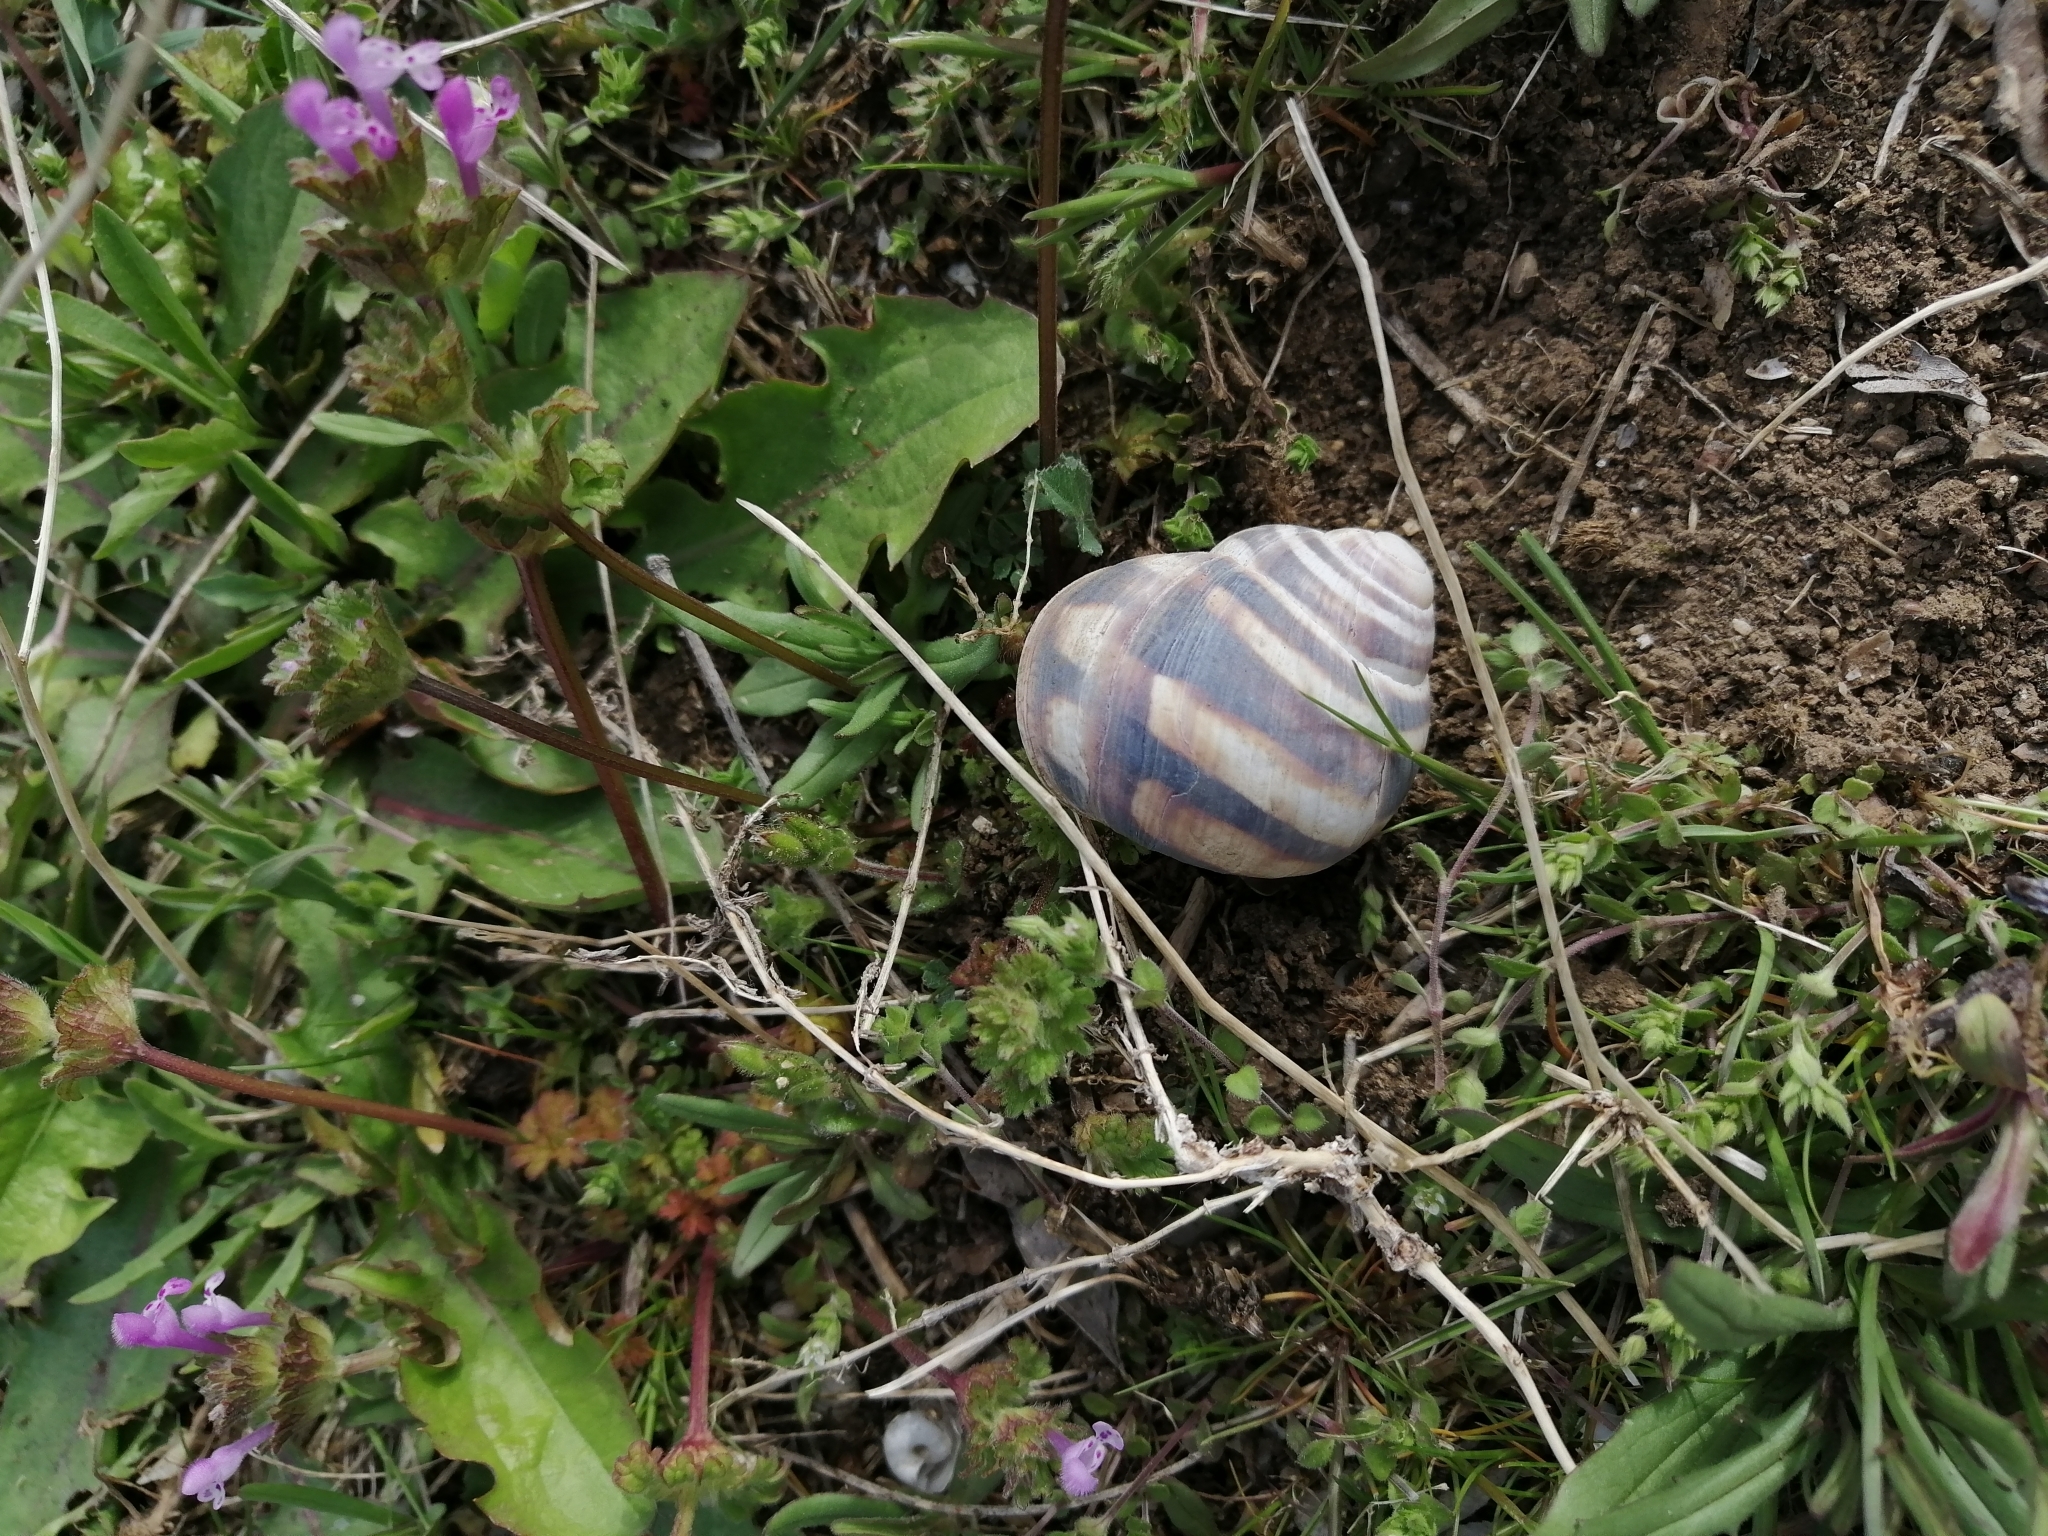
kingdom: Animalia
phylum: Mollusca
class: Gastropoda
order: Stylommatophora
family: Helicidae
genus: Helix
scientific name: Helix albescens
